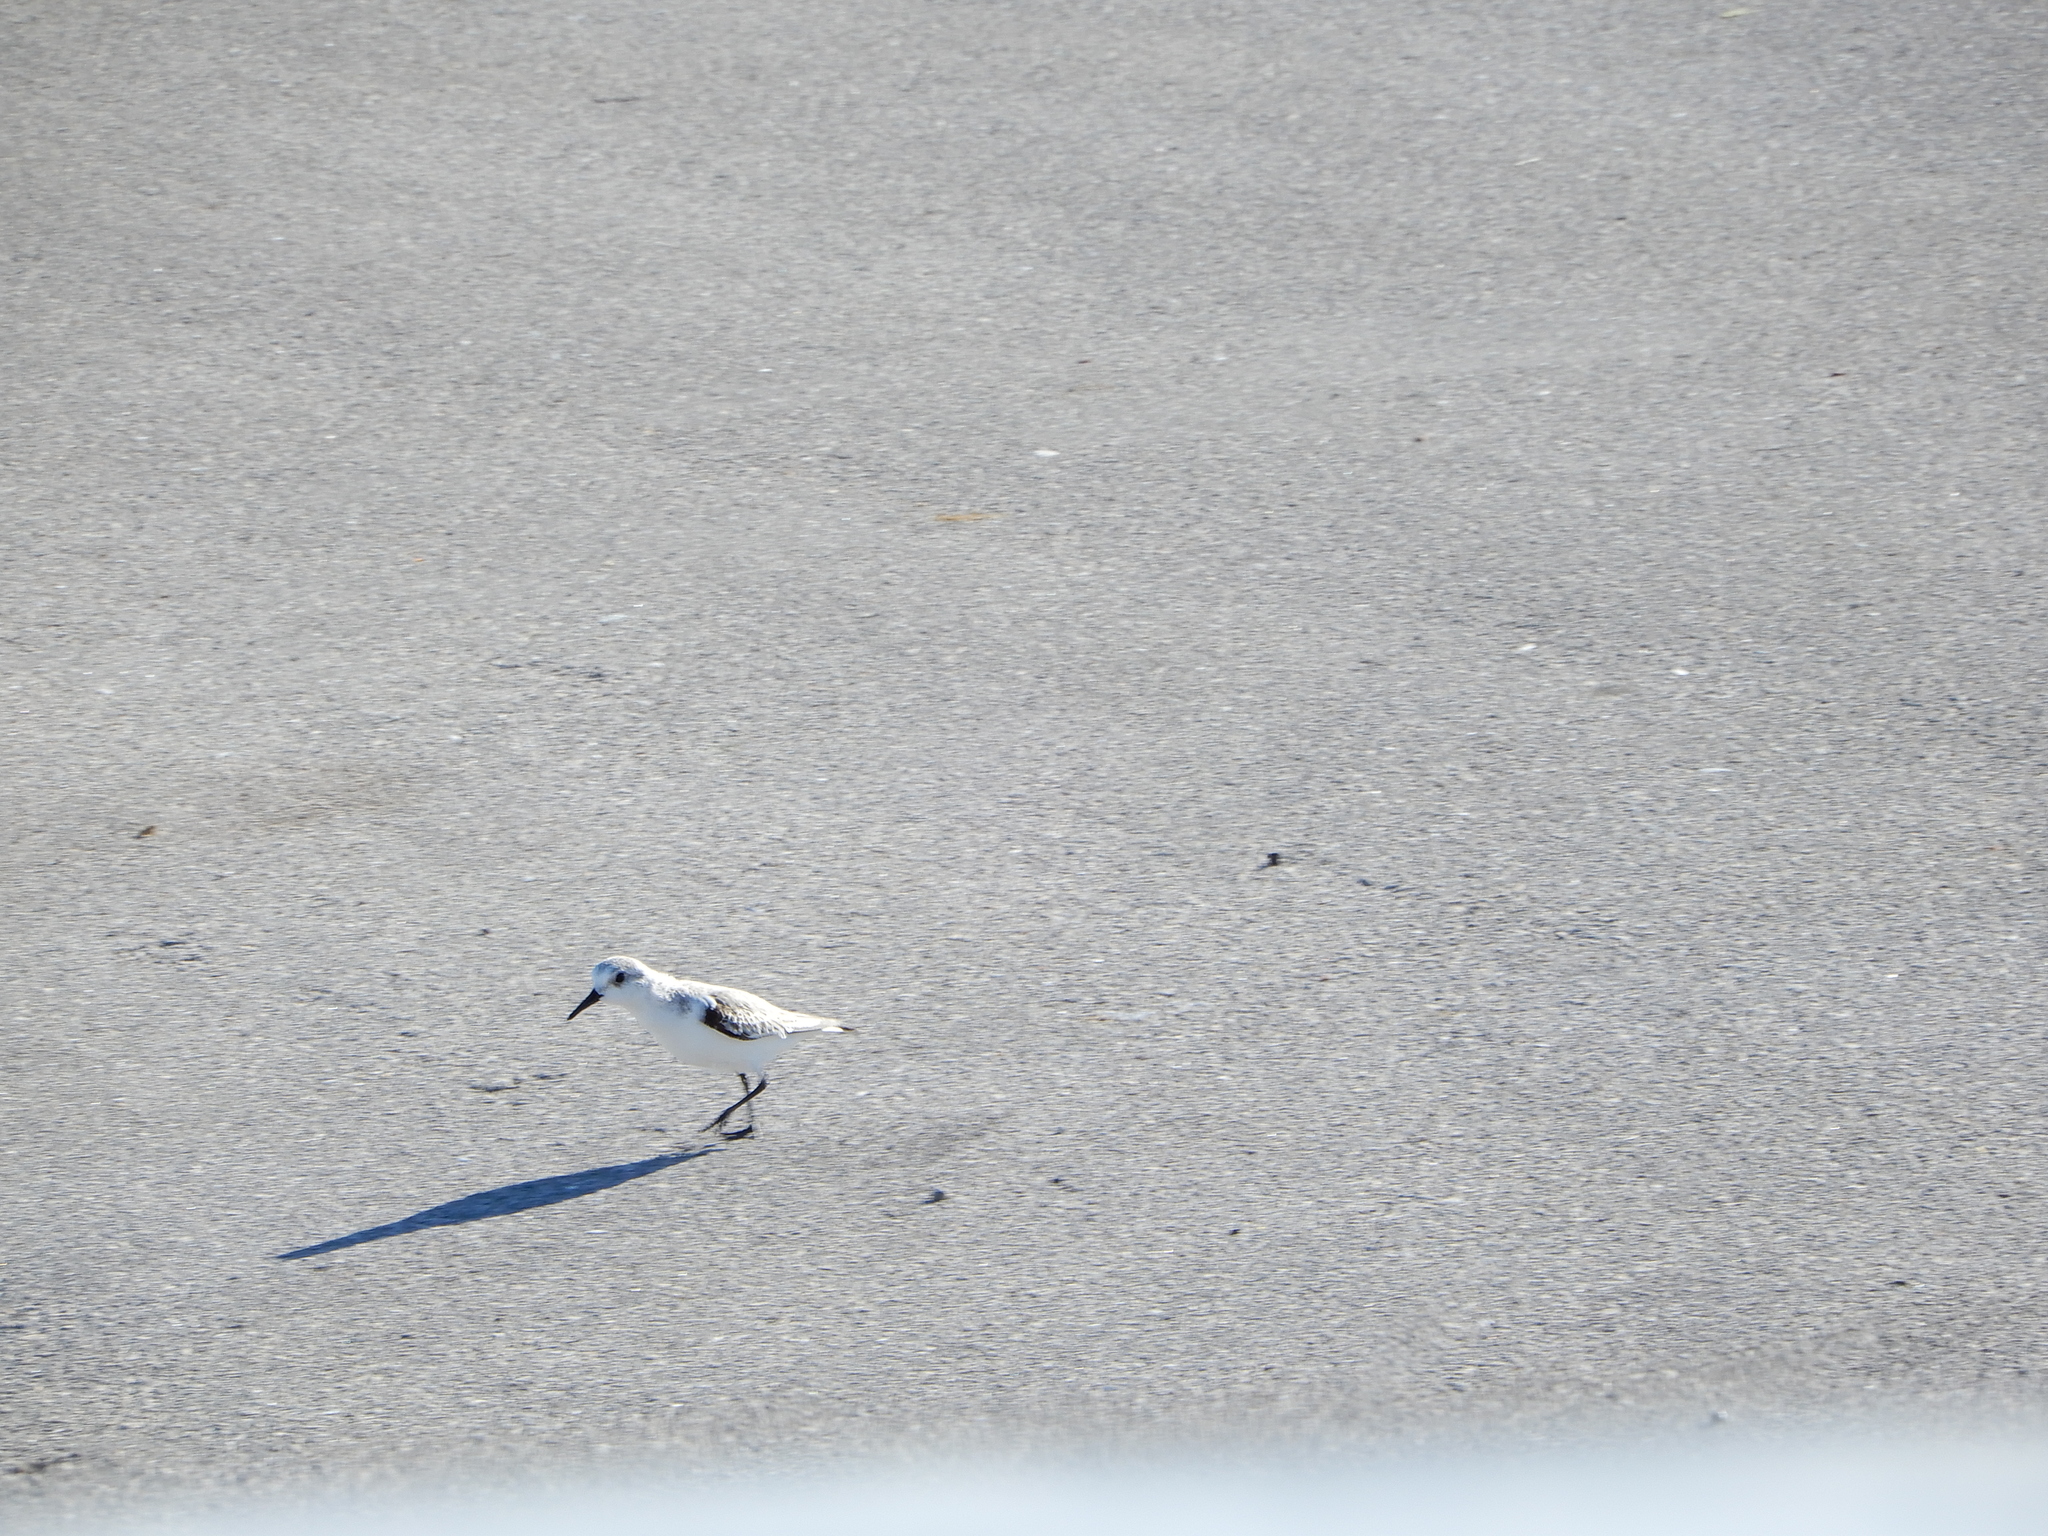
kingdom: Animalia
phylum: Chordata
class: Aves
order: Charadriiformes
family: Scolopacidae
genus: Calidris
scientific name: Calidris alba
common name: Sanderling
